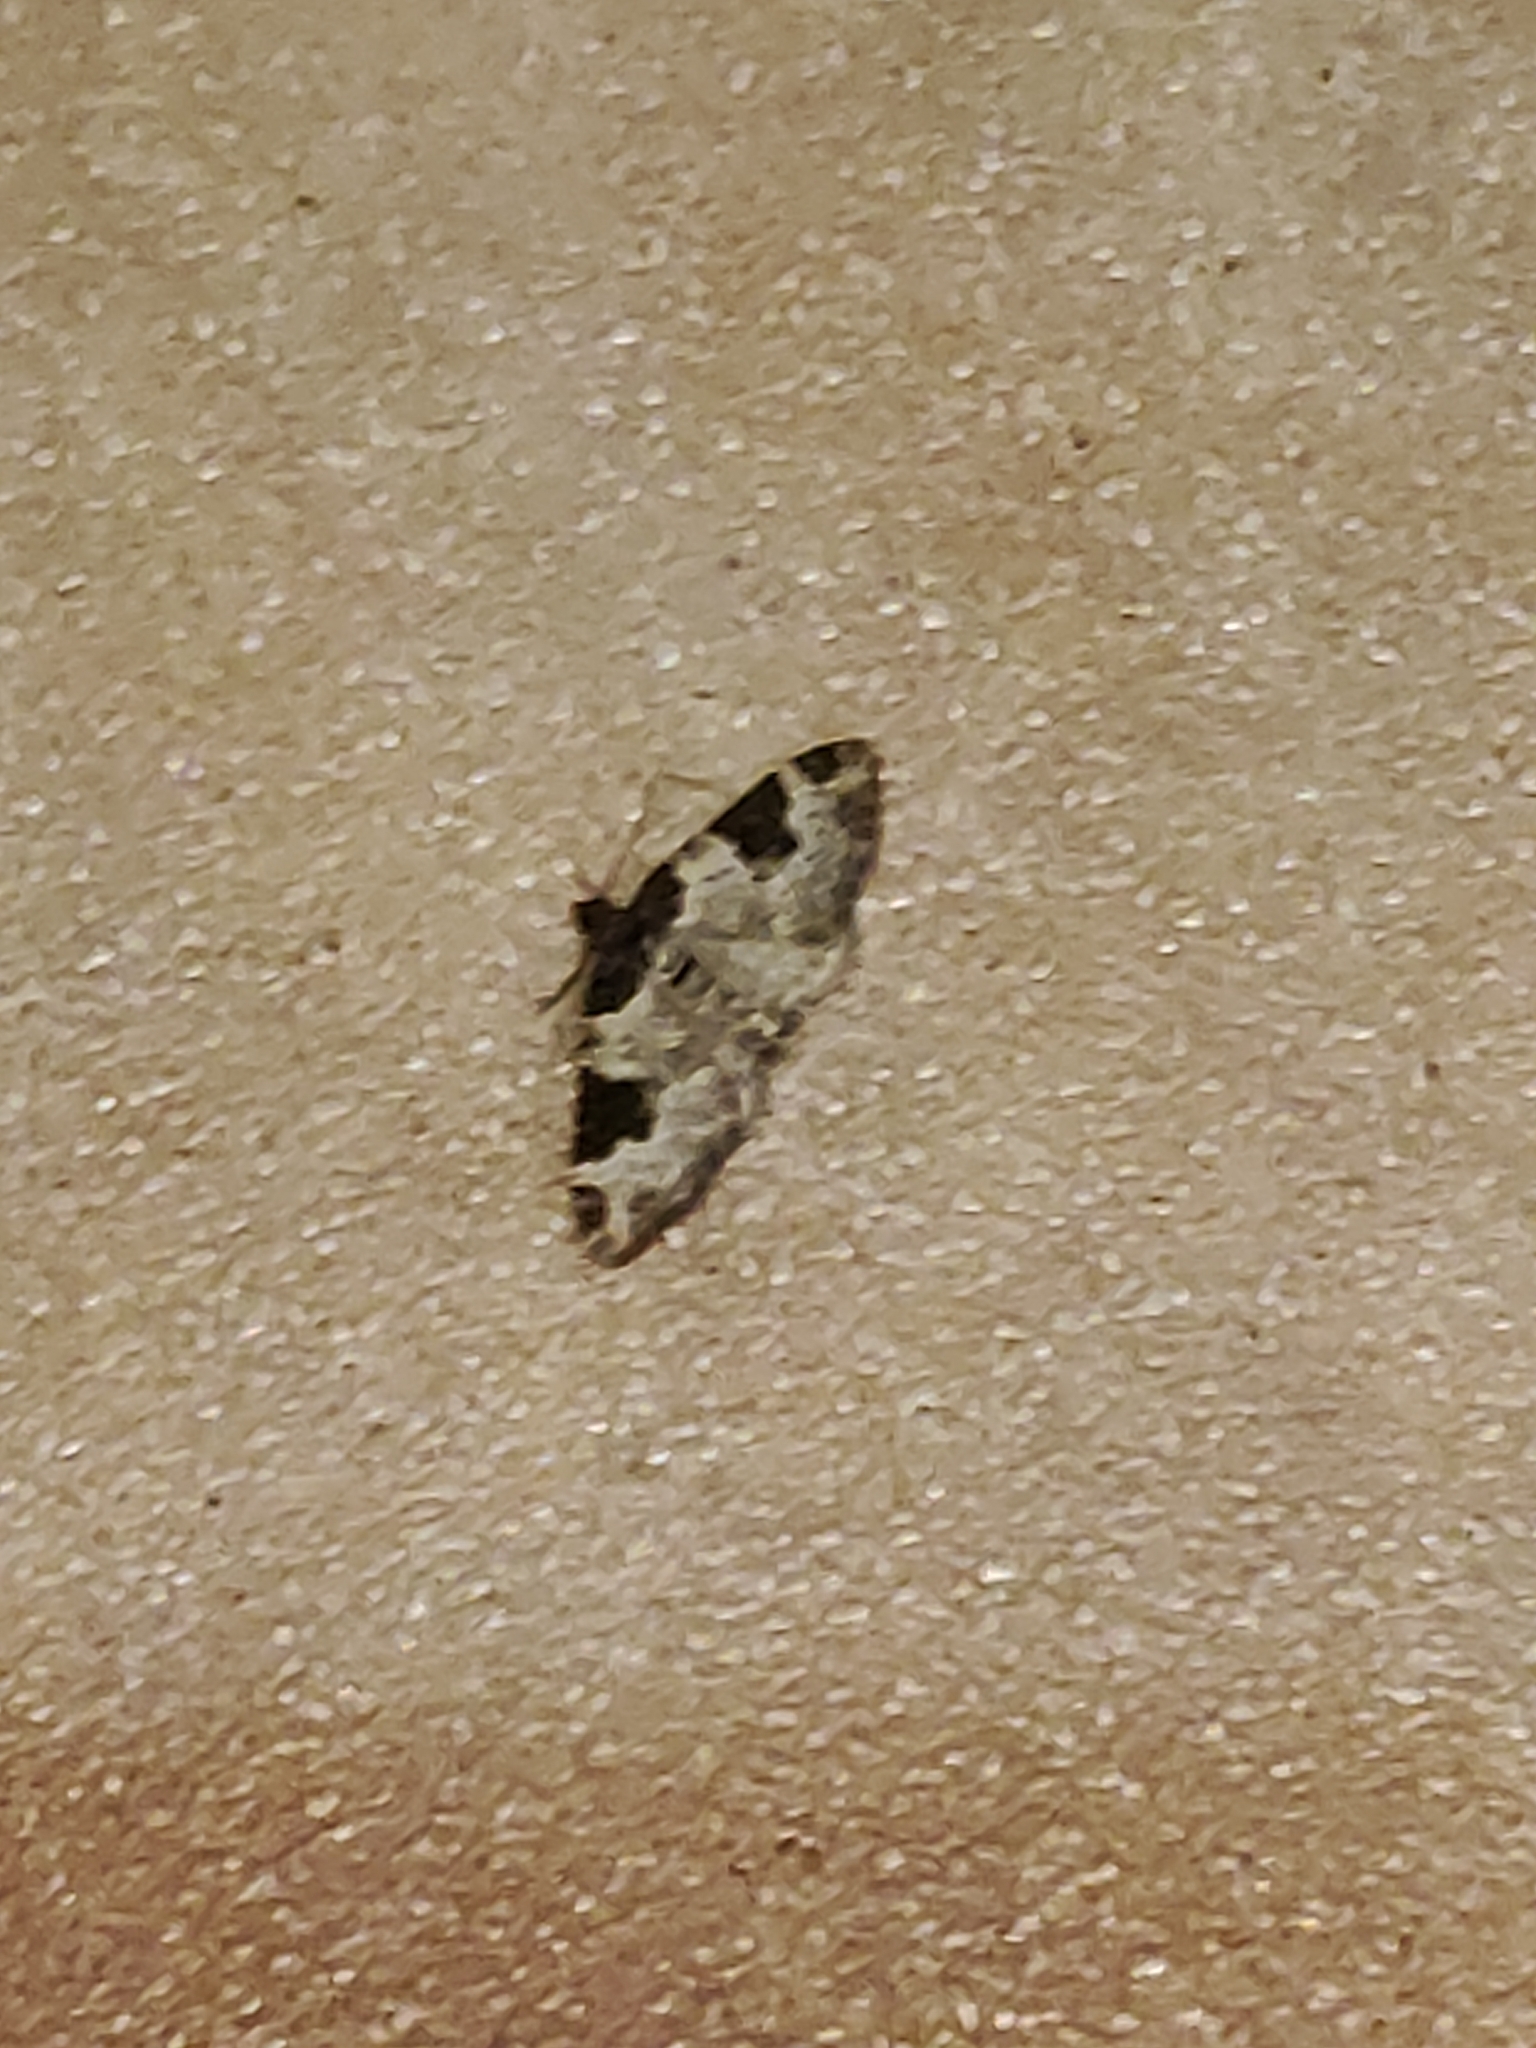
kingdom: Animalia
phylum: Arthropoda
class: Insecta
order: Lepidoptera
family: Geometridae
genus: Xanthorhoe
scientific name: Xanthorhoe fluctuata
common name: Garden carpet
